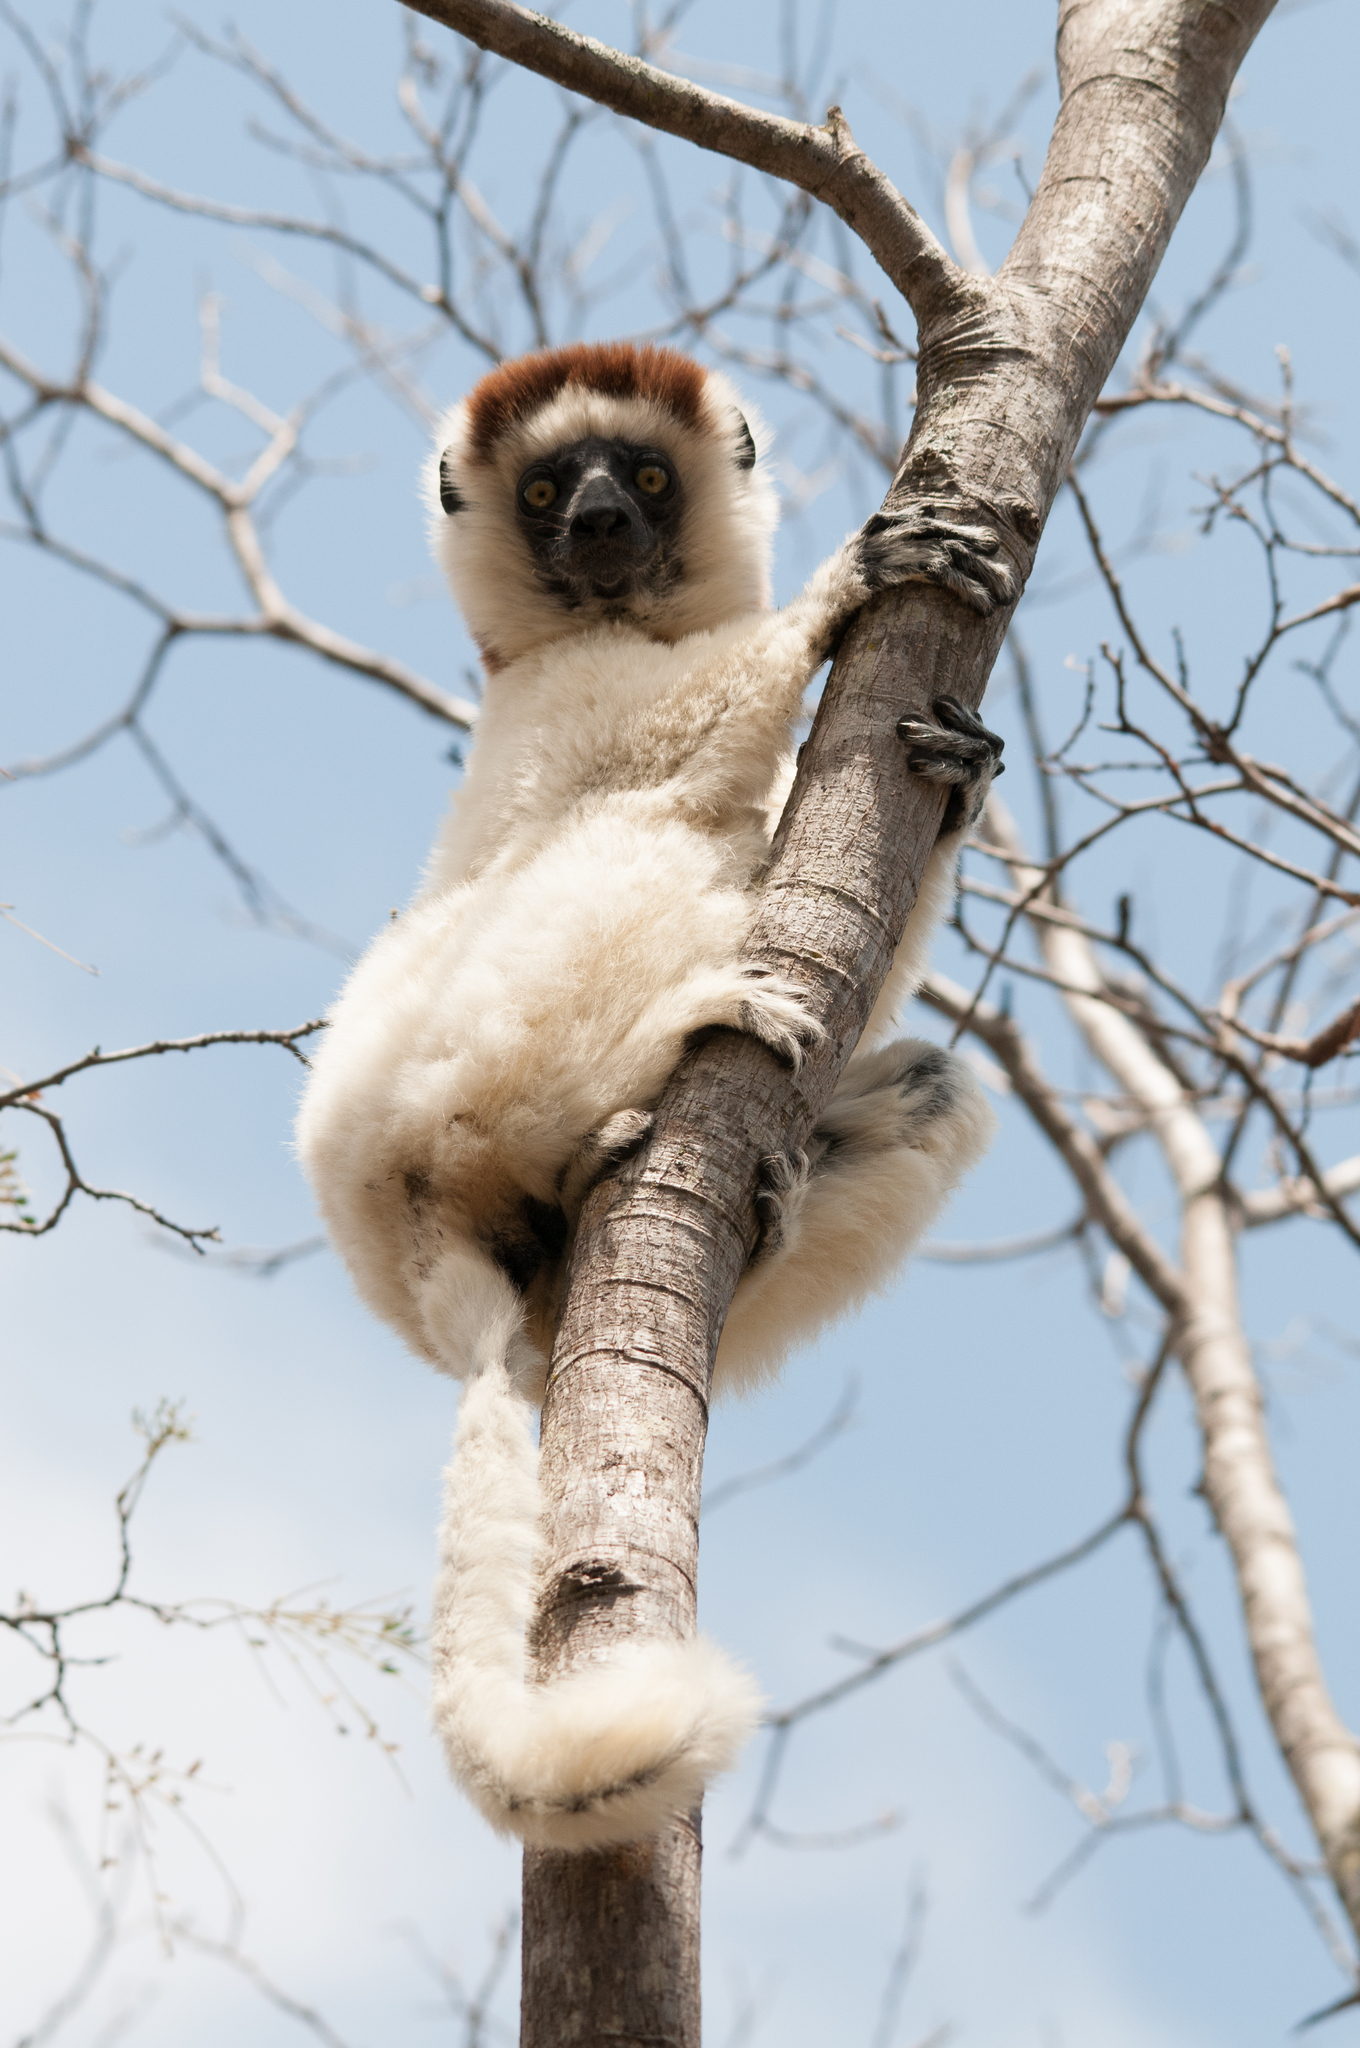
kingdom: Animalia
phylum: Chordata
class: Mammalia
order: Primates
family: Indriidae
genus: Propithecus
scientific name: Propithecus verreauxi
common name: Verreaux's sifaka
